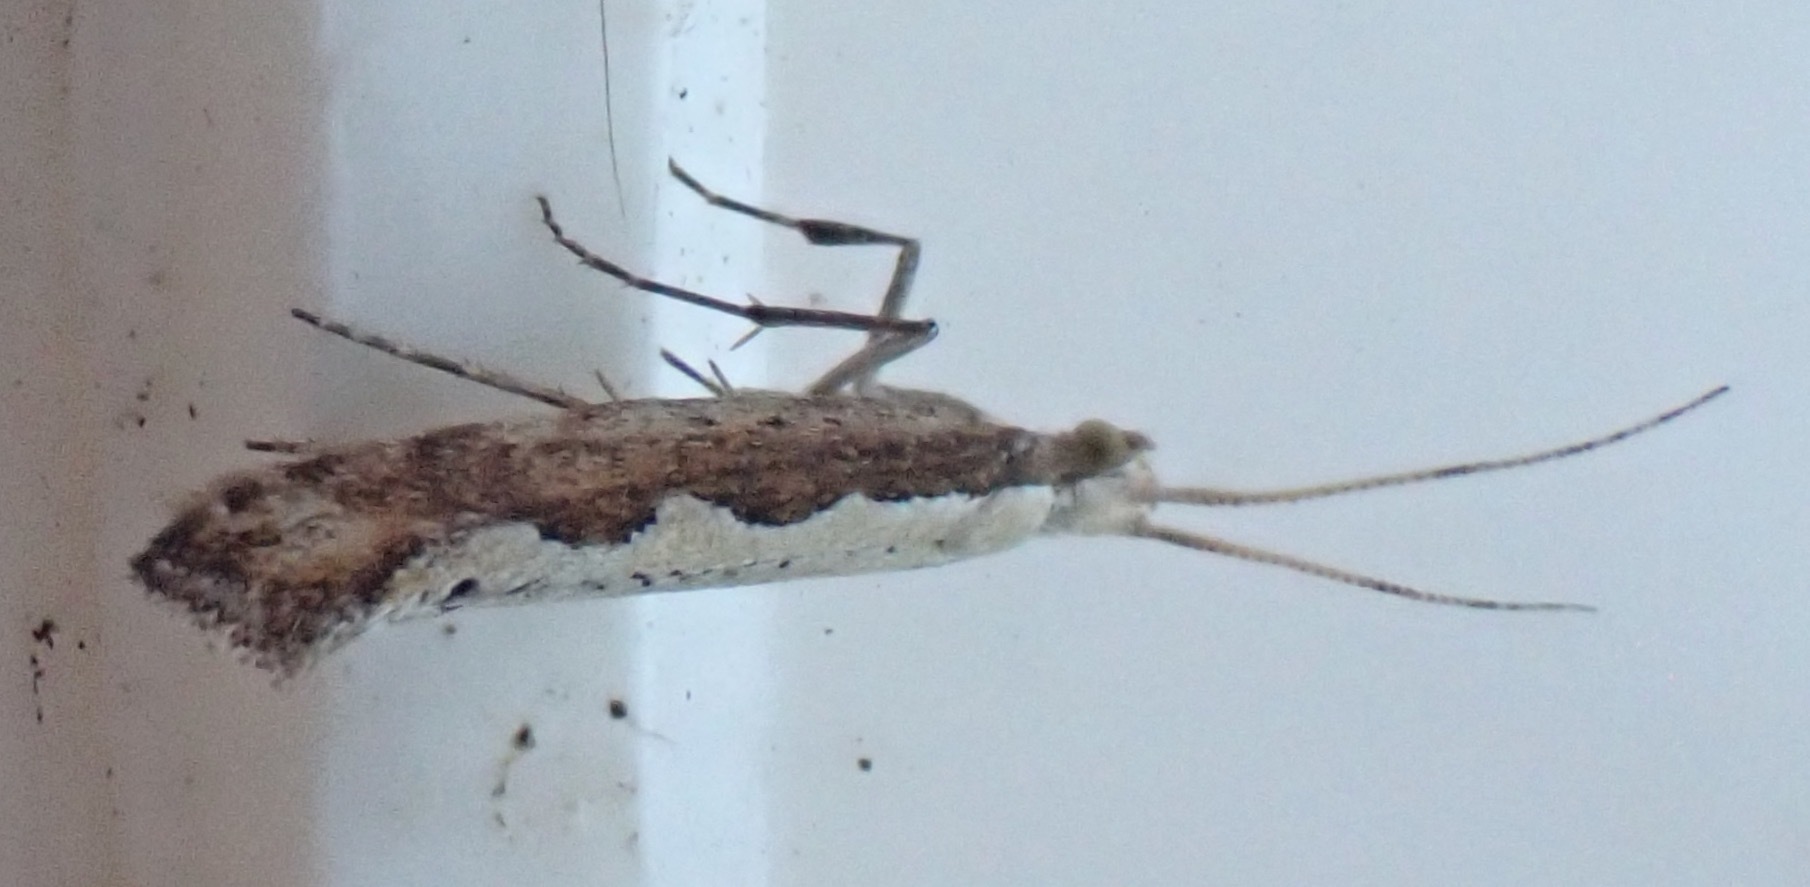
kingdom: Animalia
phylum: Arthropoda
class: Insecta
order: Lepidoptera
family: Plutellidae
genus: Plutella
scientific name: Plutella xylostella
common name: Diamond-back moth
